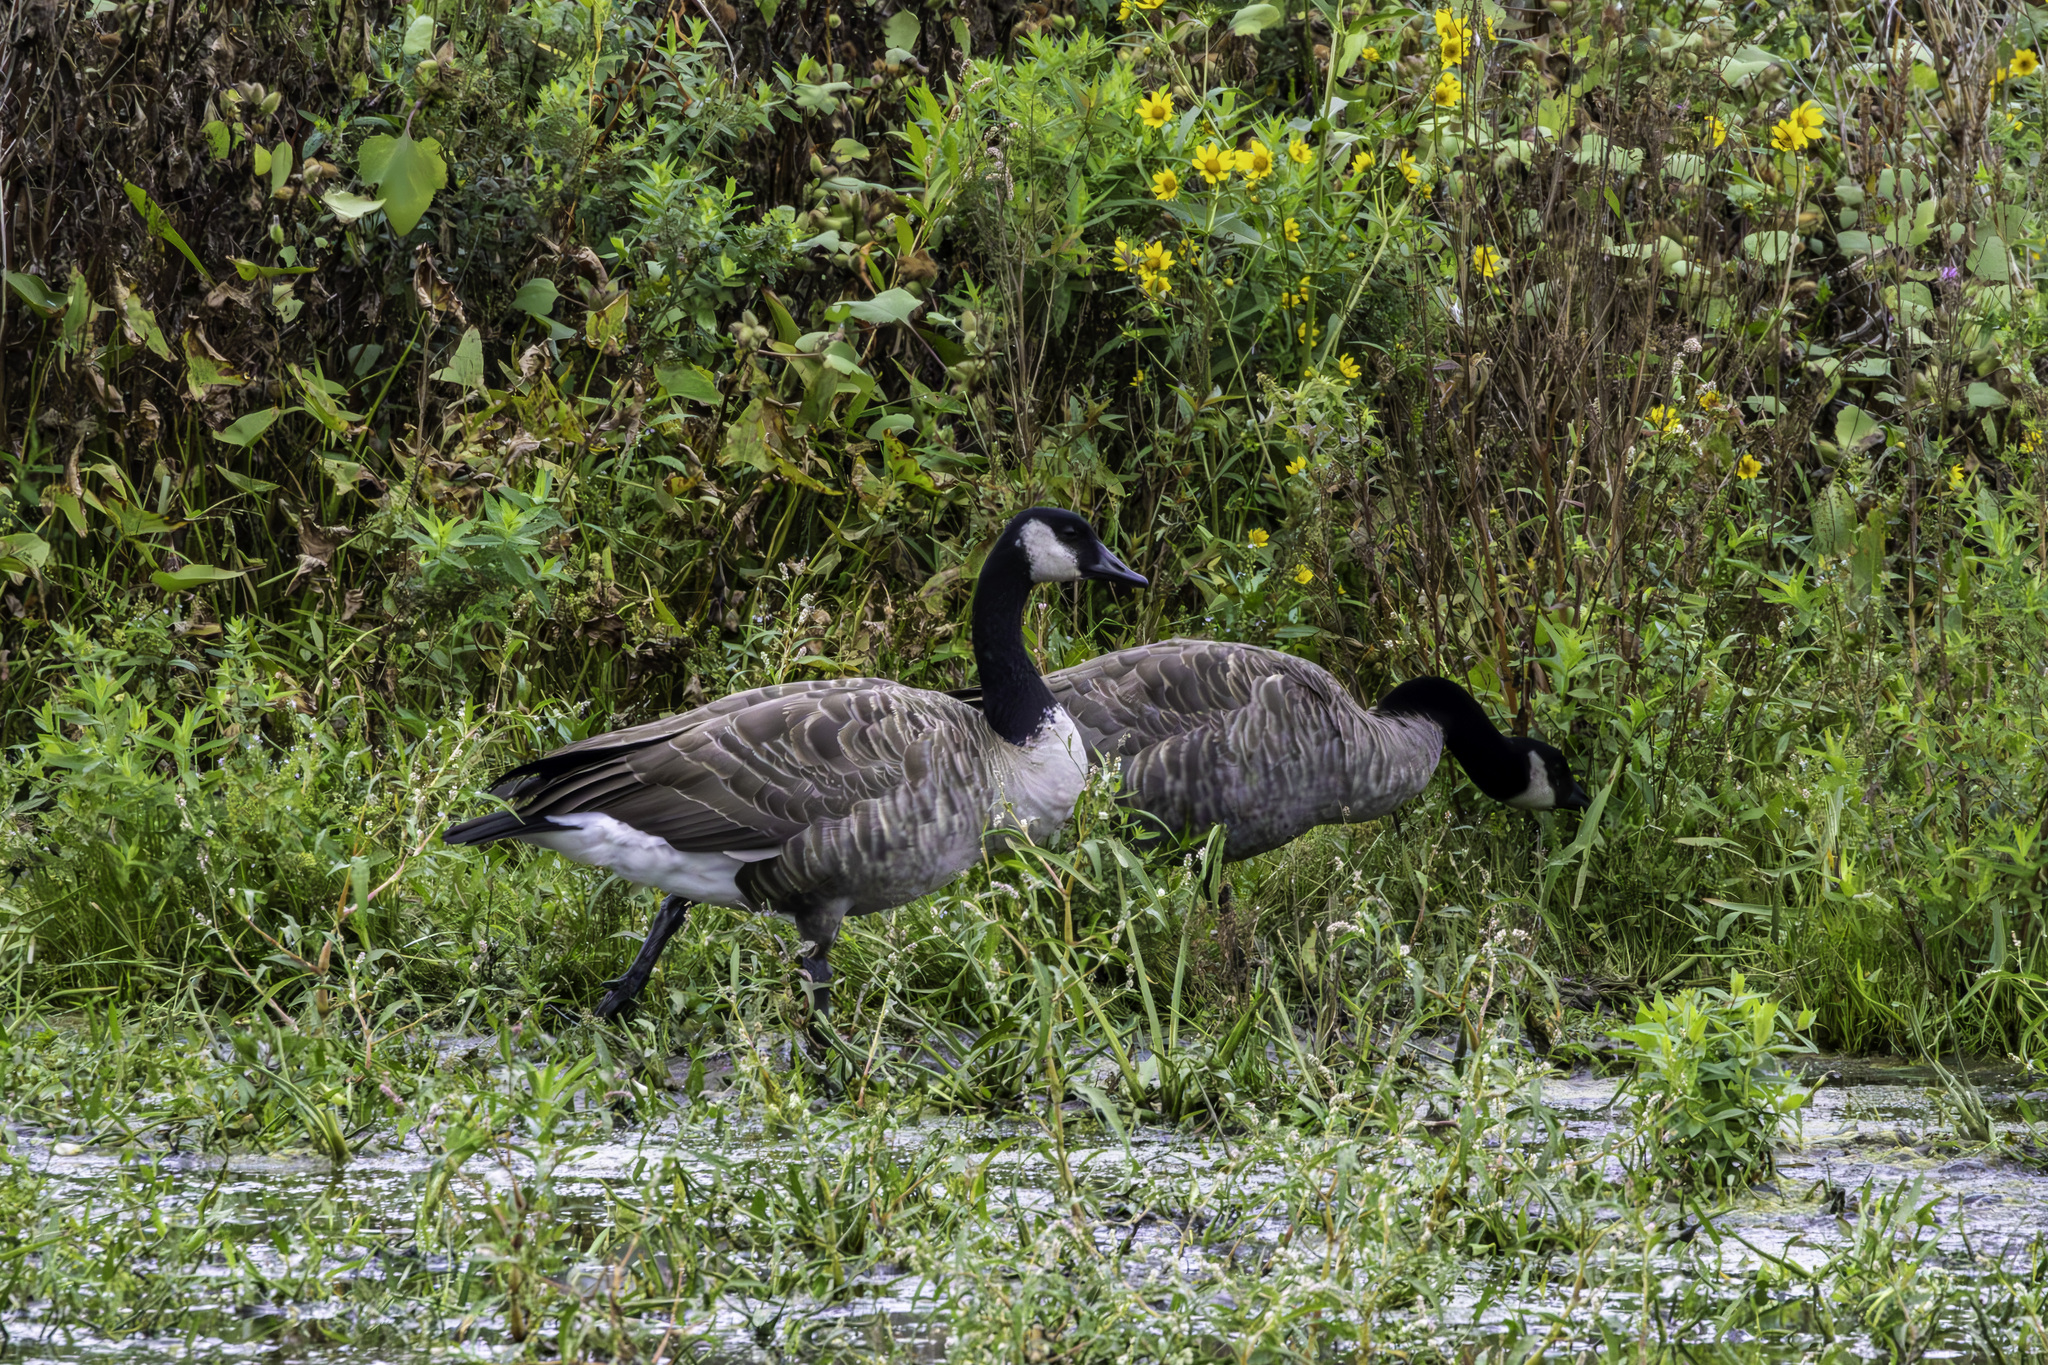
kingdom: Animalia
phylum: Chordata
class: Aves
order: Anseriformes
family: Anatidae
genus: Branta
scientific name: Branta canadensis
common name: Canada goose
